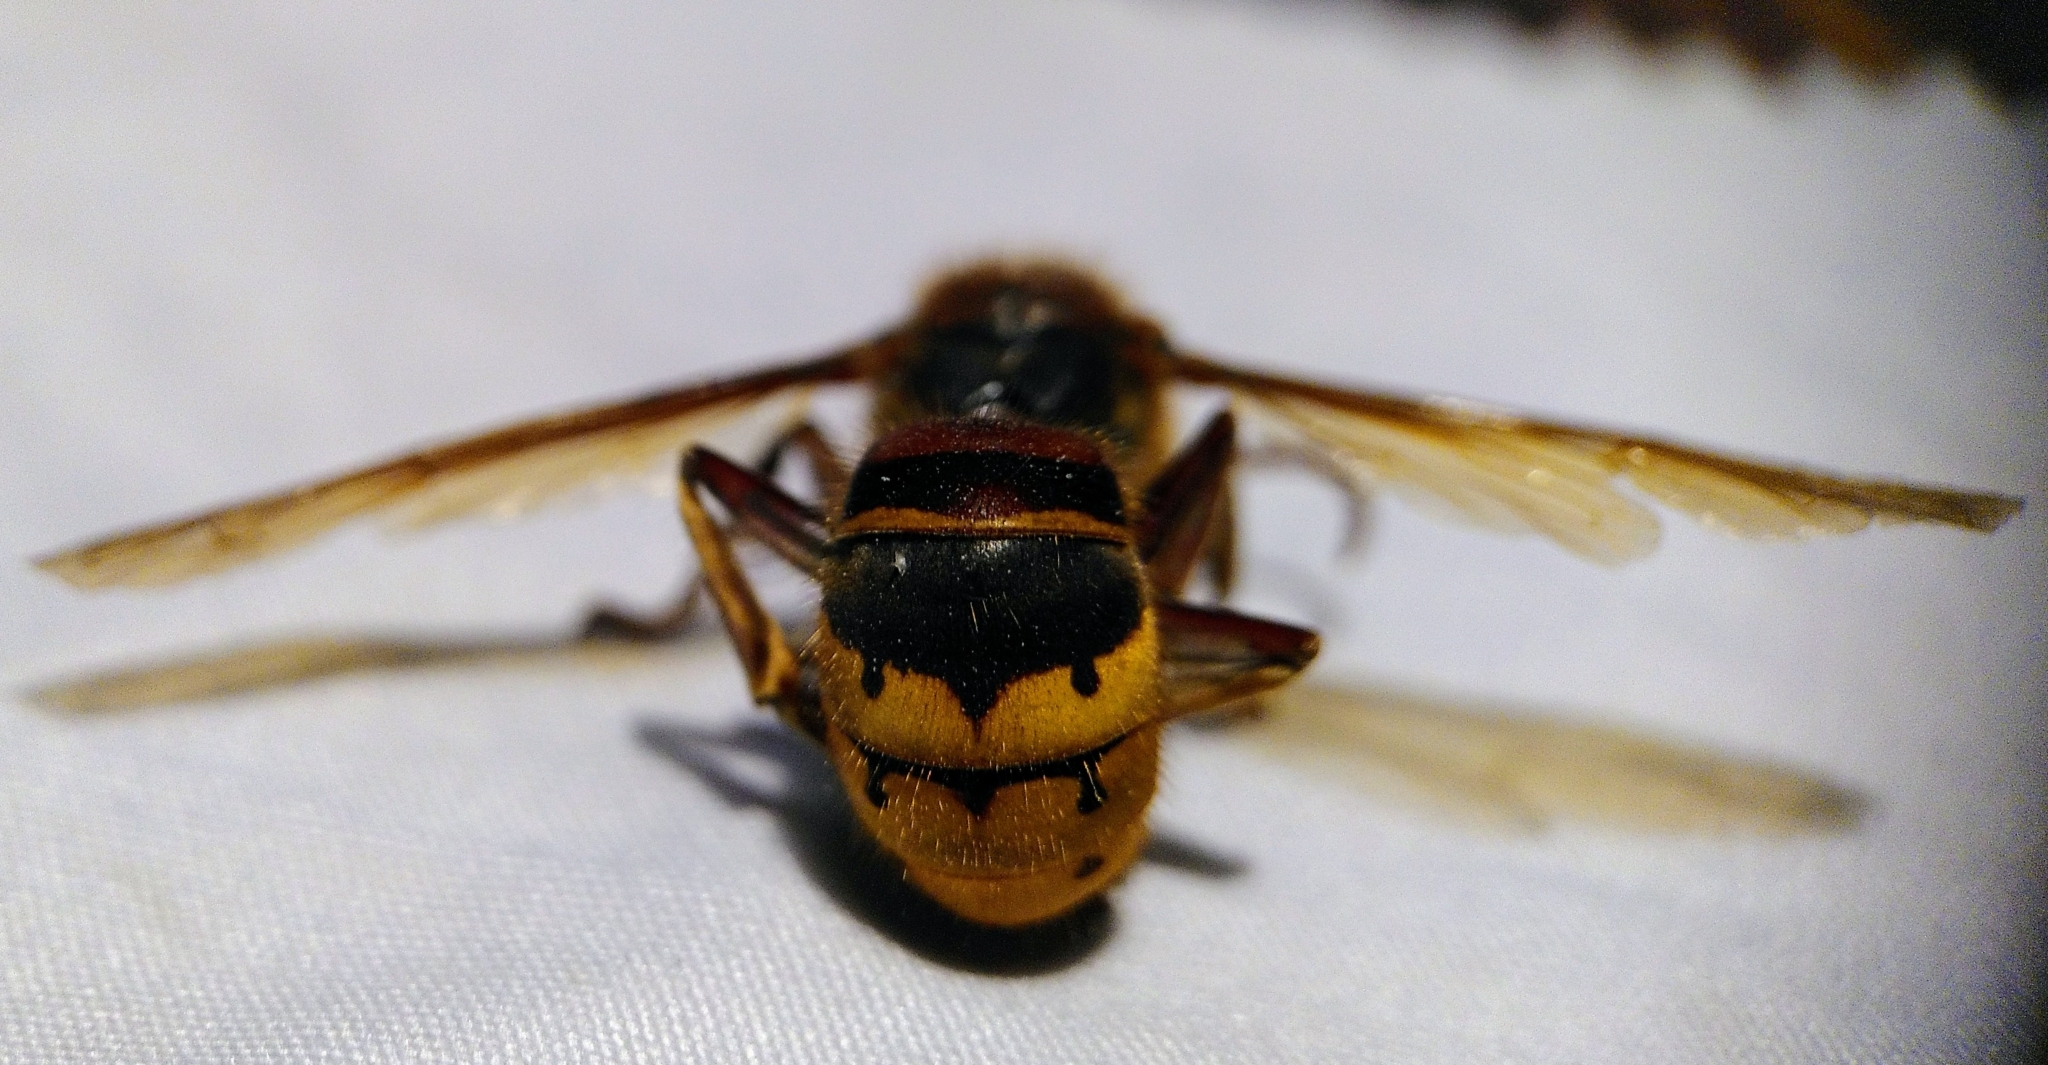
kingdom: Animalia
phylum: Arthropoda
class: Insecta
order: Hymenoptera
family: Vespidae
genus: Vespa
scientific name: Vespa crabro
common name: Hornet
